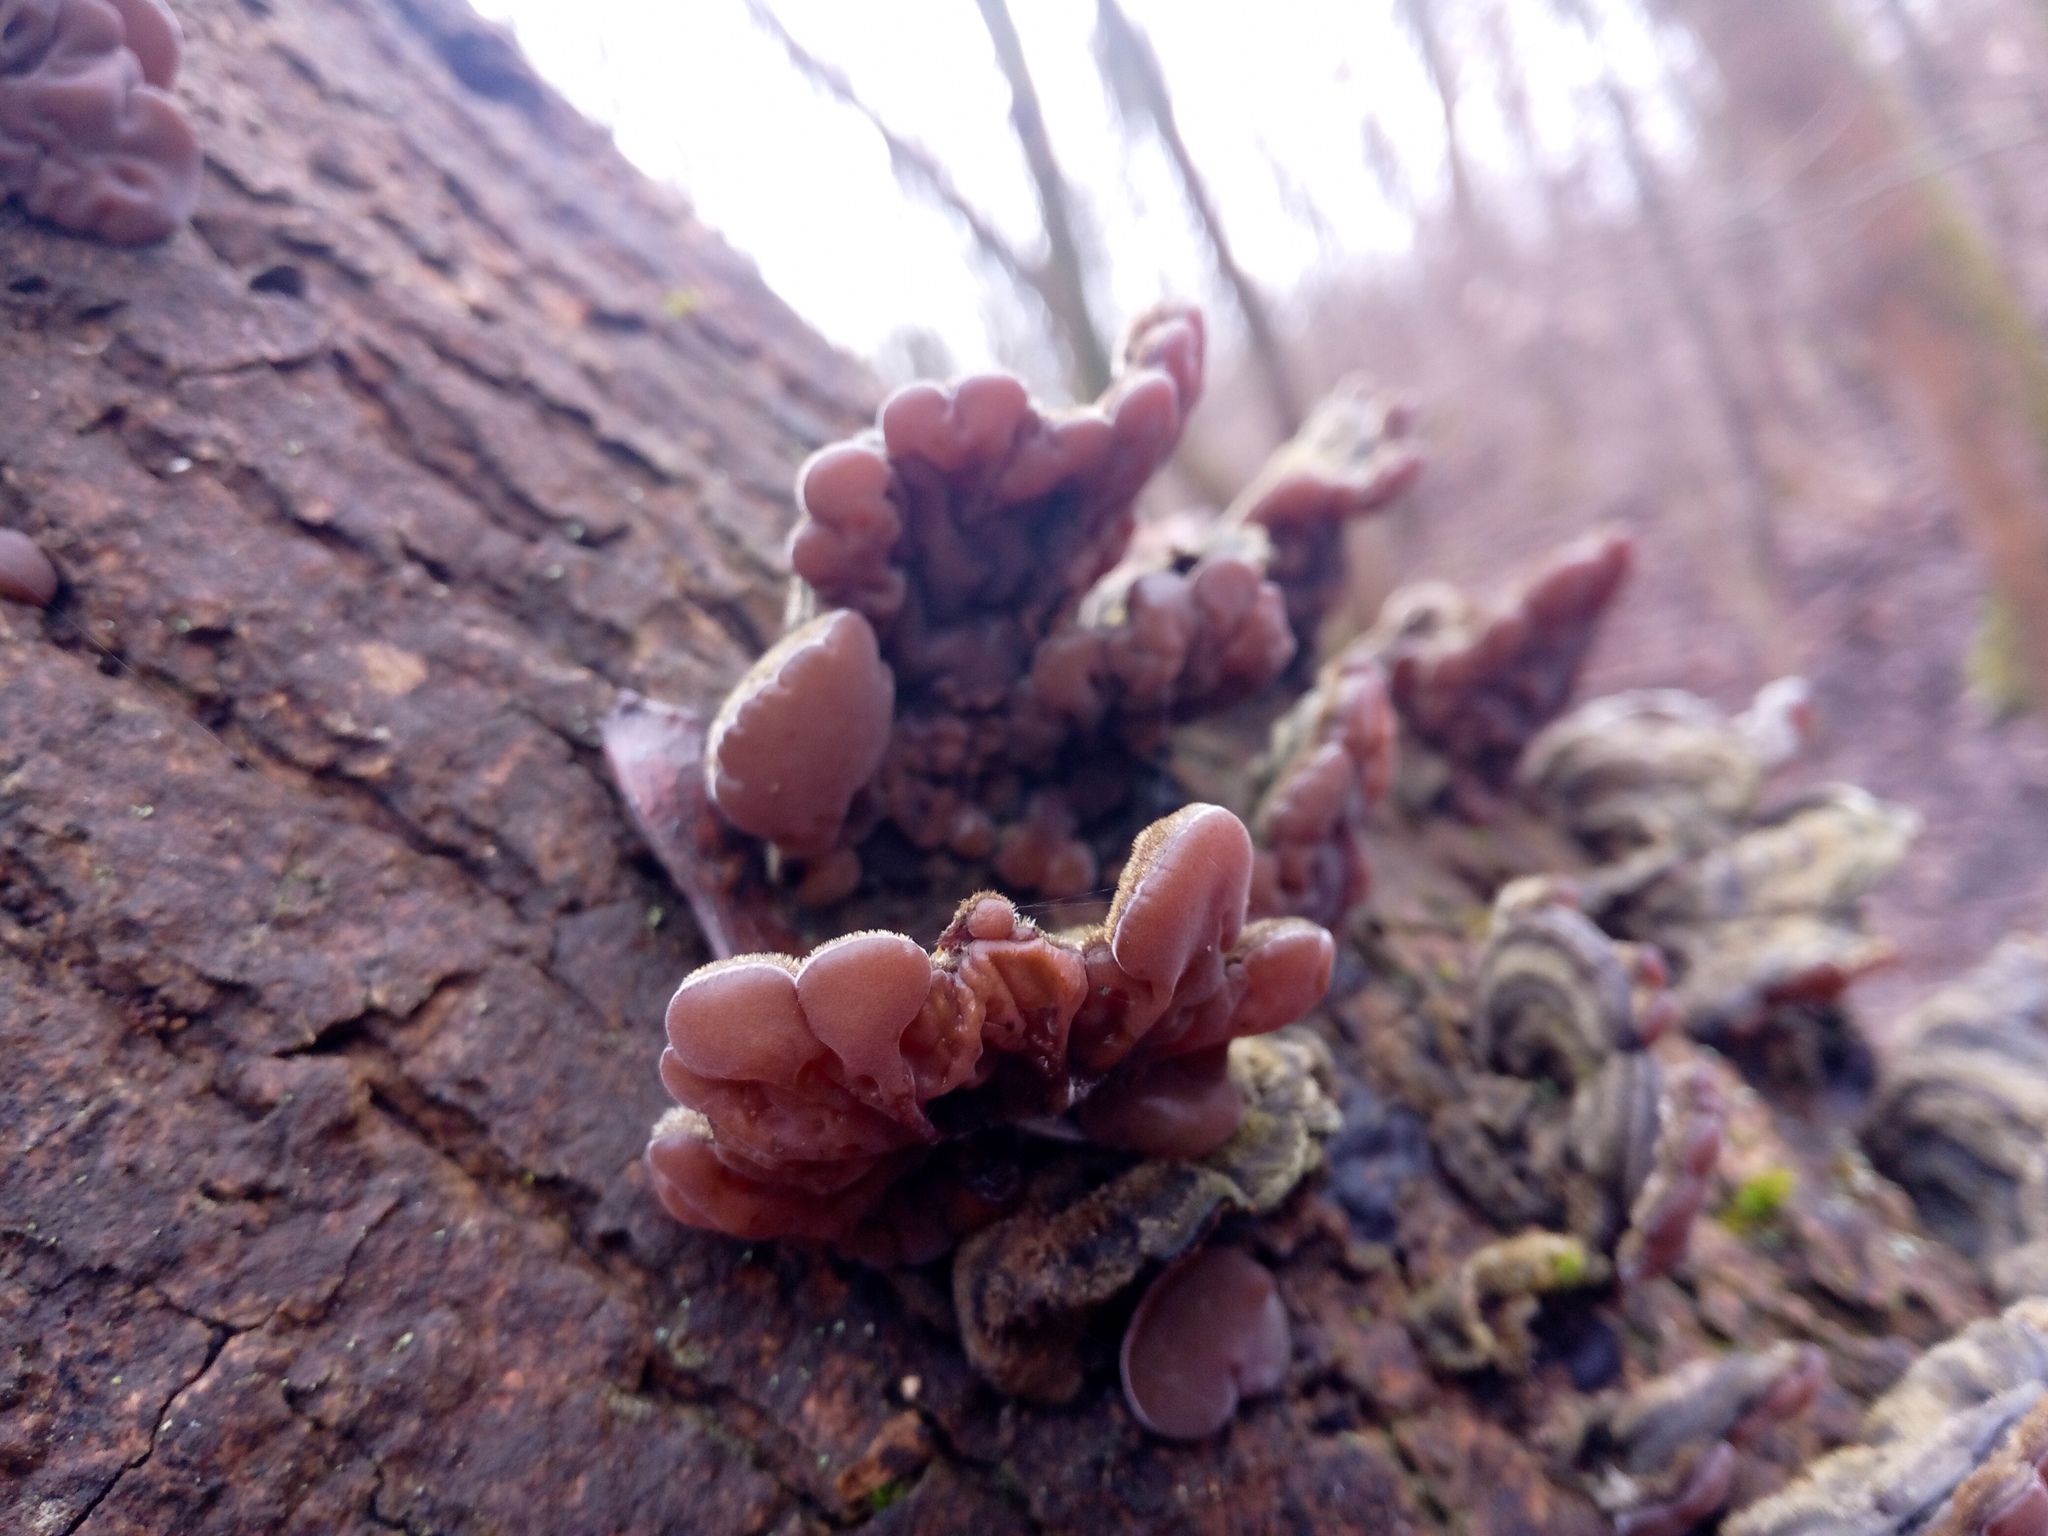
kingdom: Fungi
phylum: Basidiomycota
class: Agaricomycetes
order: Auriculariales
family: Auriculariaceae
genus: Auricularia
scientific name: Auricularia mesenterica
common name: Tripe fungus
